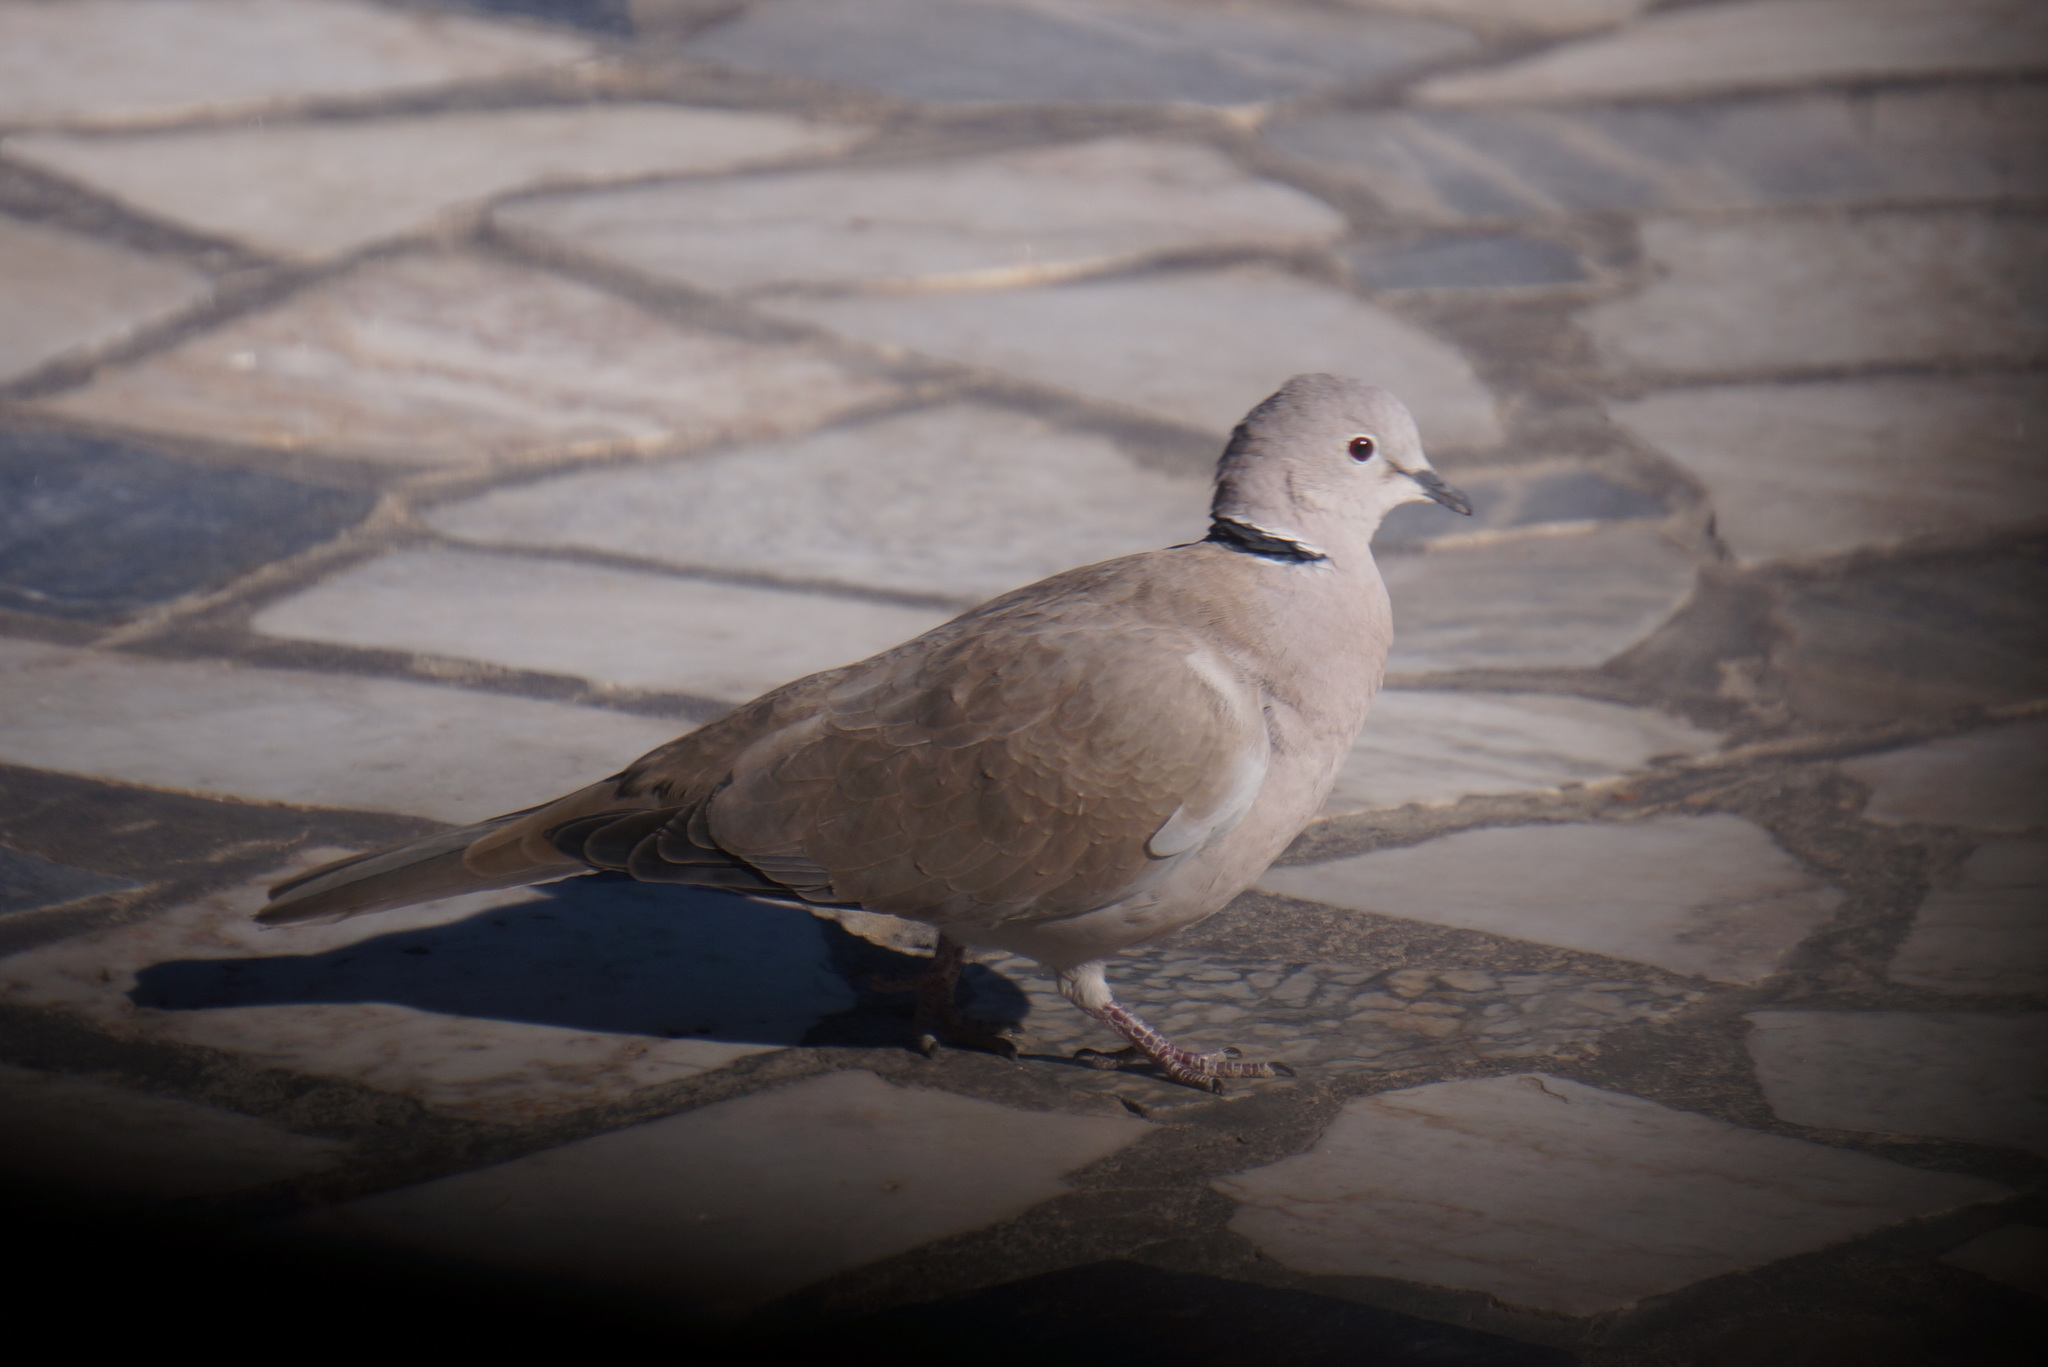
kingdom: Animalia
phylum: Chordata
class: Aves
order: Columbiformes
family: Columbidae
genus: Streptopelia
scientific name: Streptopelia decaocto
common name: Eurasian collared dove
